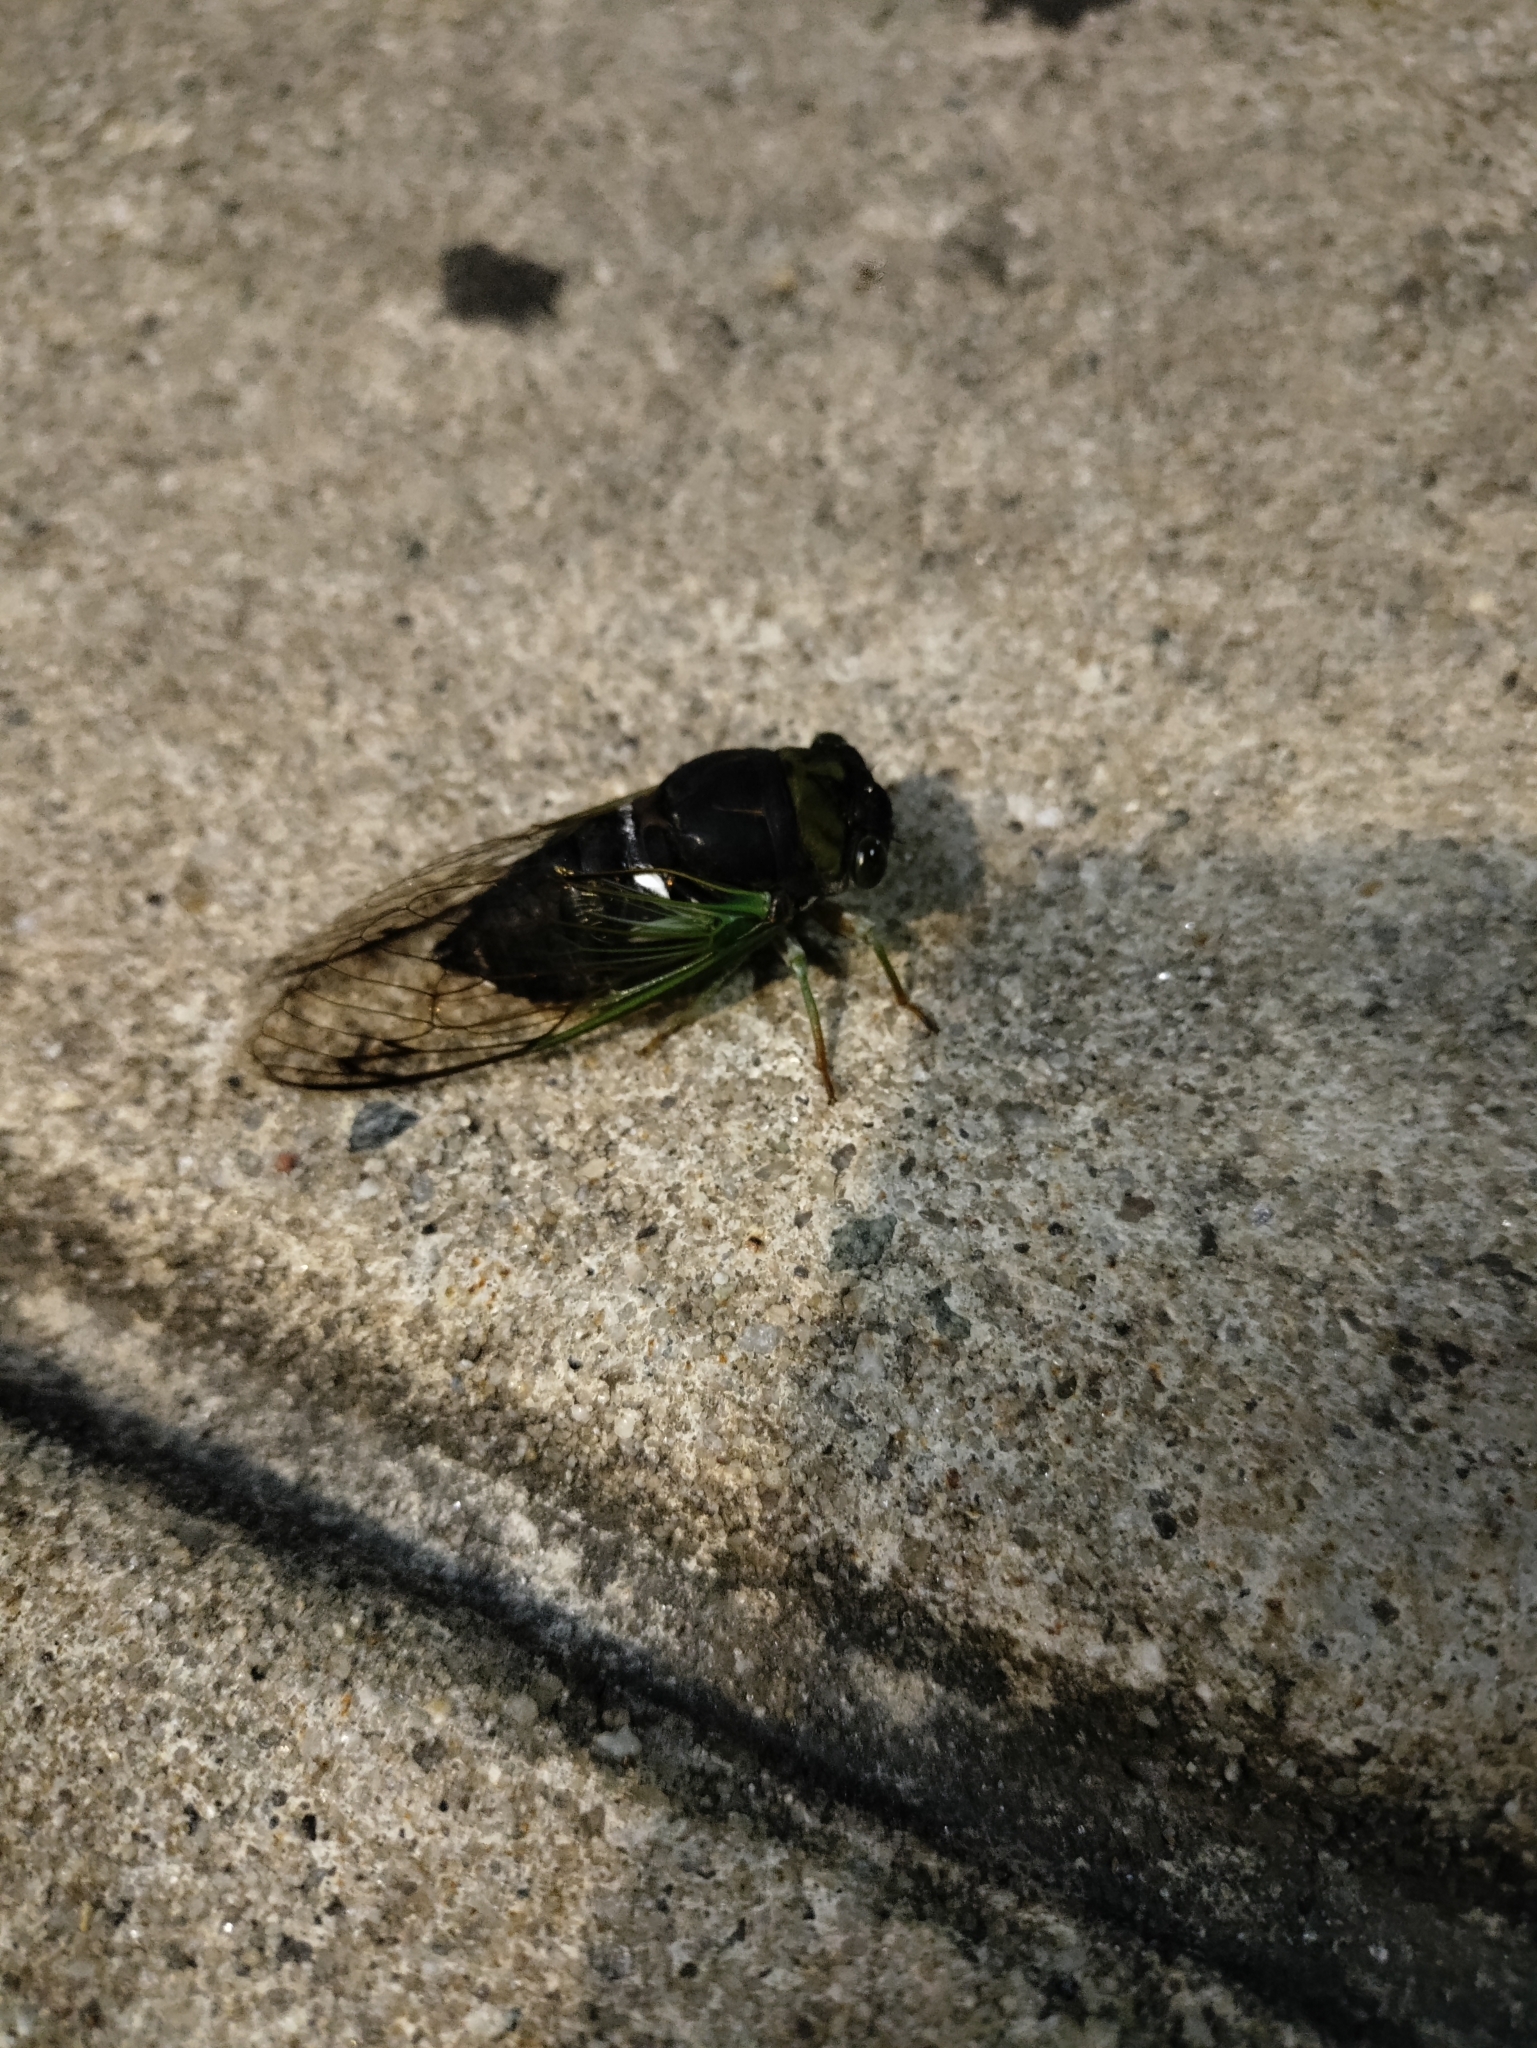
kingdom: Animalia
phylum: Arthropoda
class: Insecta
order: Hemiptera
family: Cicadidae
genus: Neotibicen
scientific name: Neotibicen tibicen
